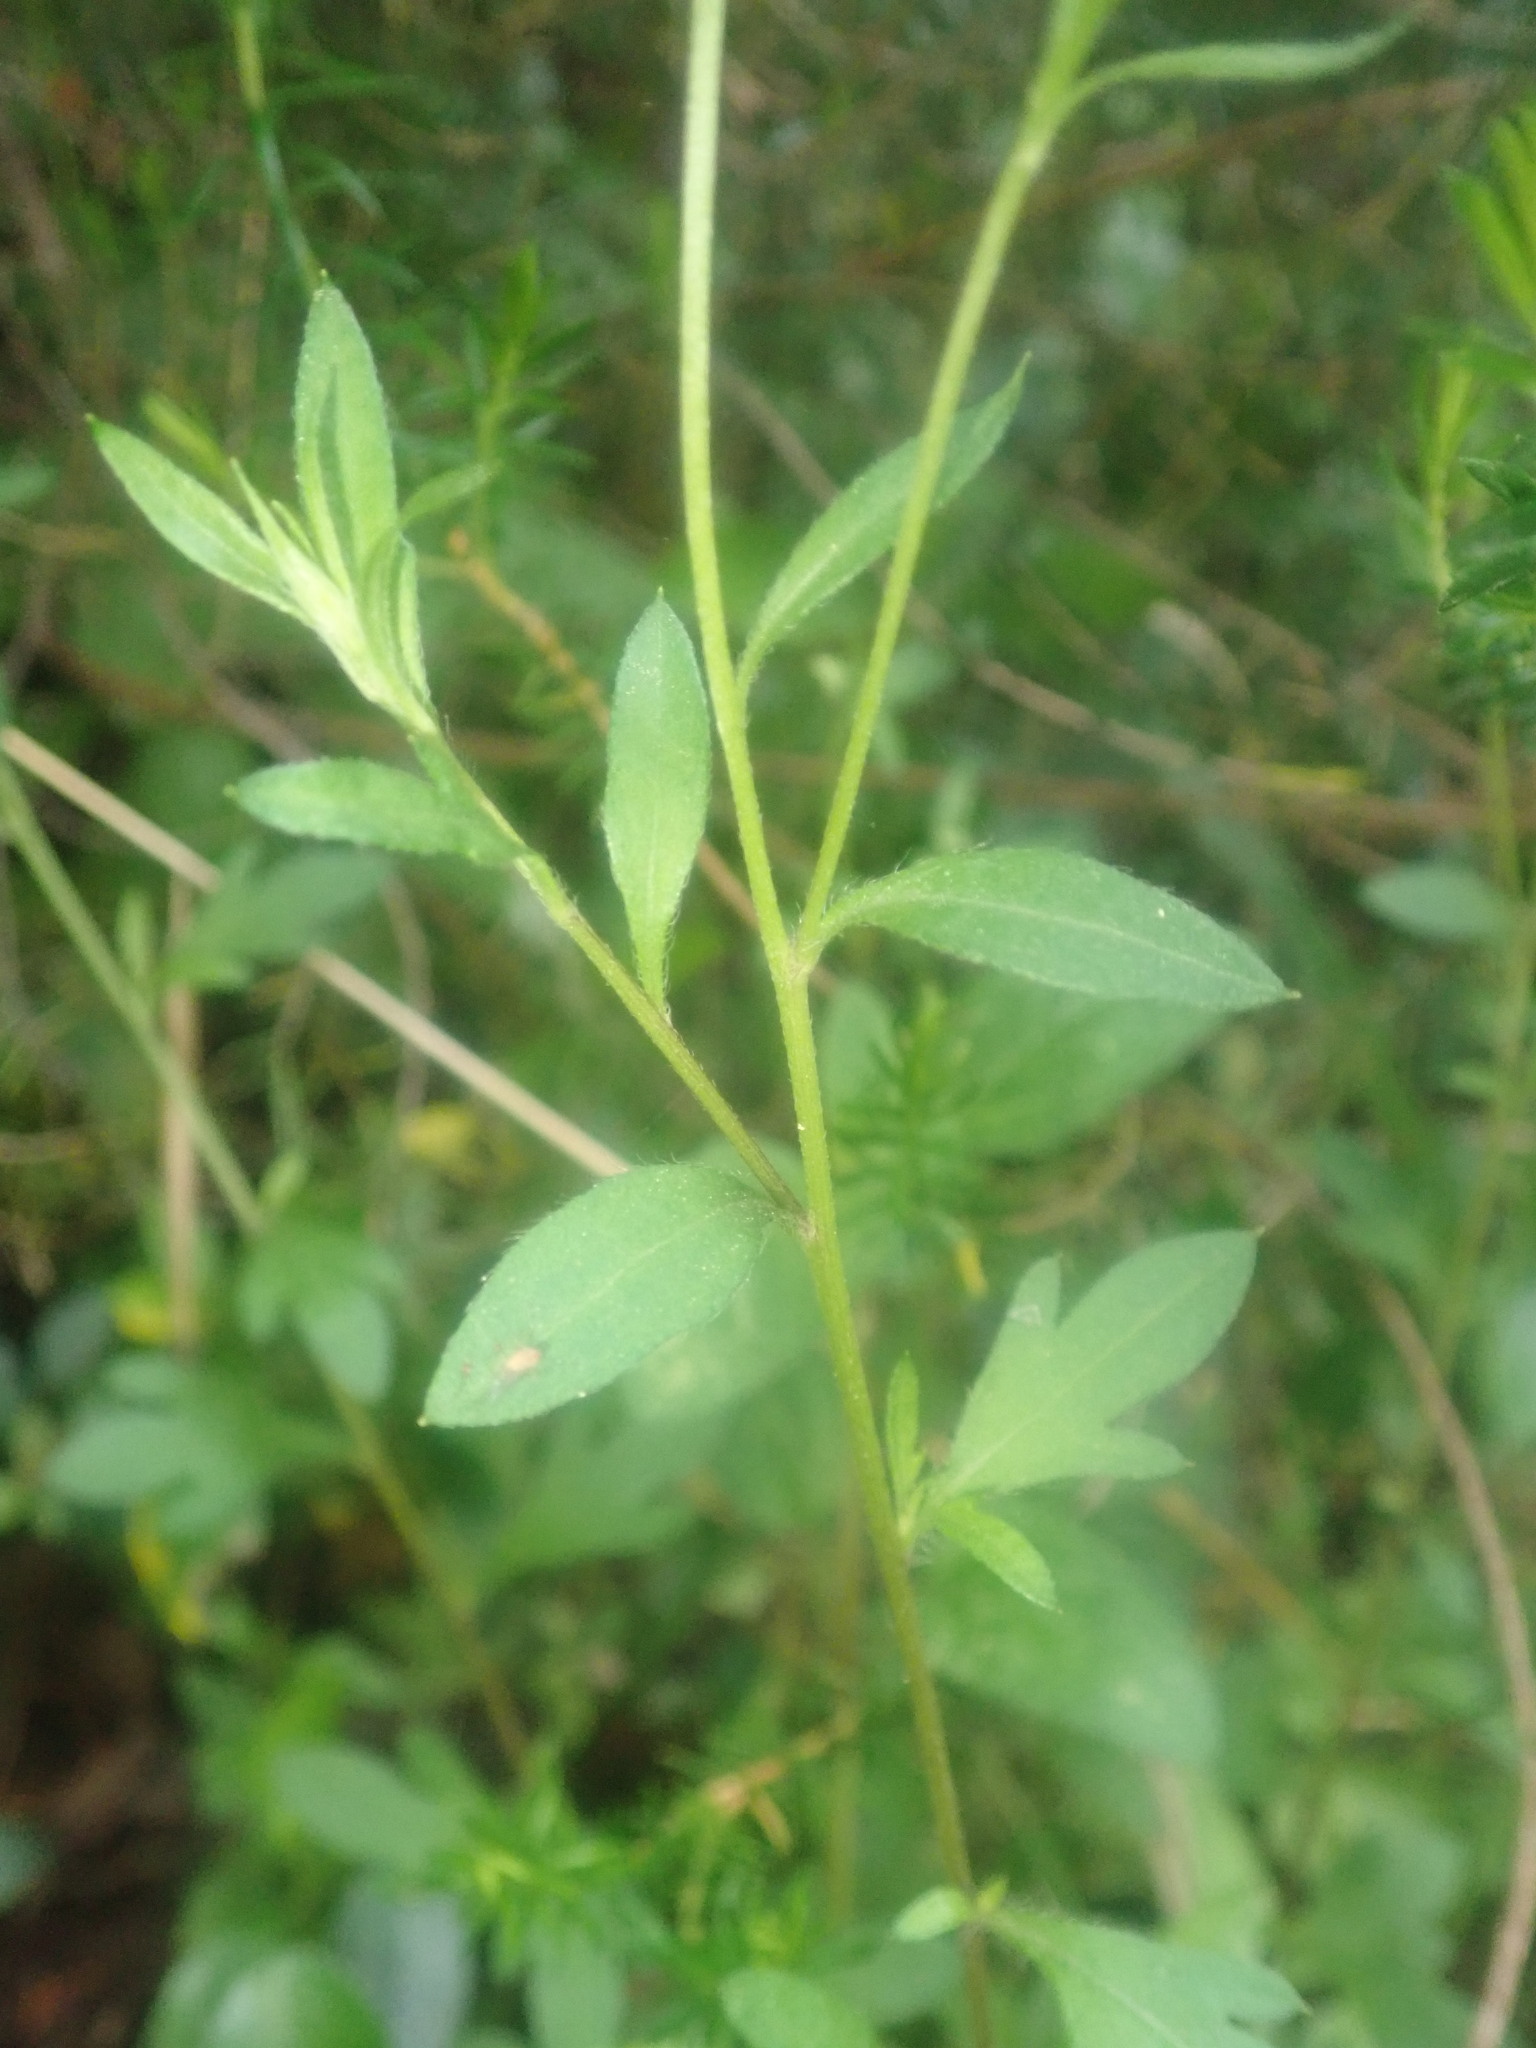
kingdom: Plantae
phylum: Tracheophyta
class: Magnoliopsida
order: Asterales
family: Asteraceae
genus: Erigeron
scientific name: Erigeron karvinskianus
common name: Mexican fleabane
